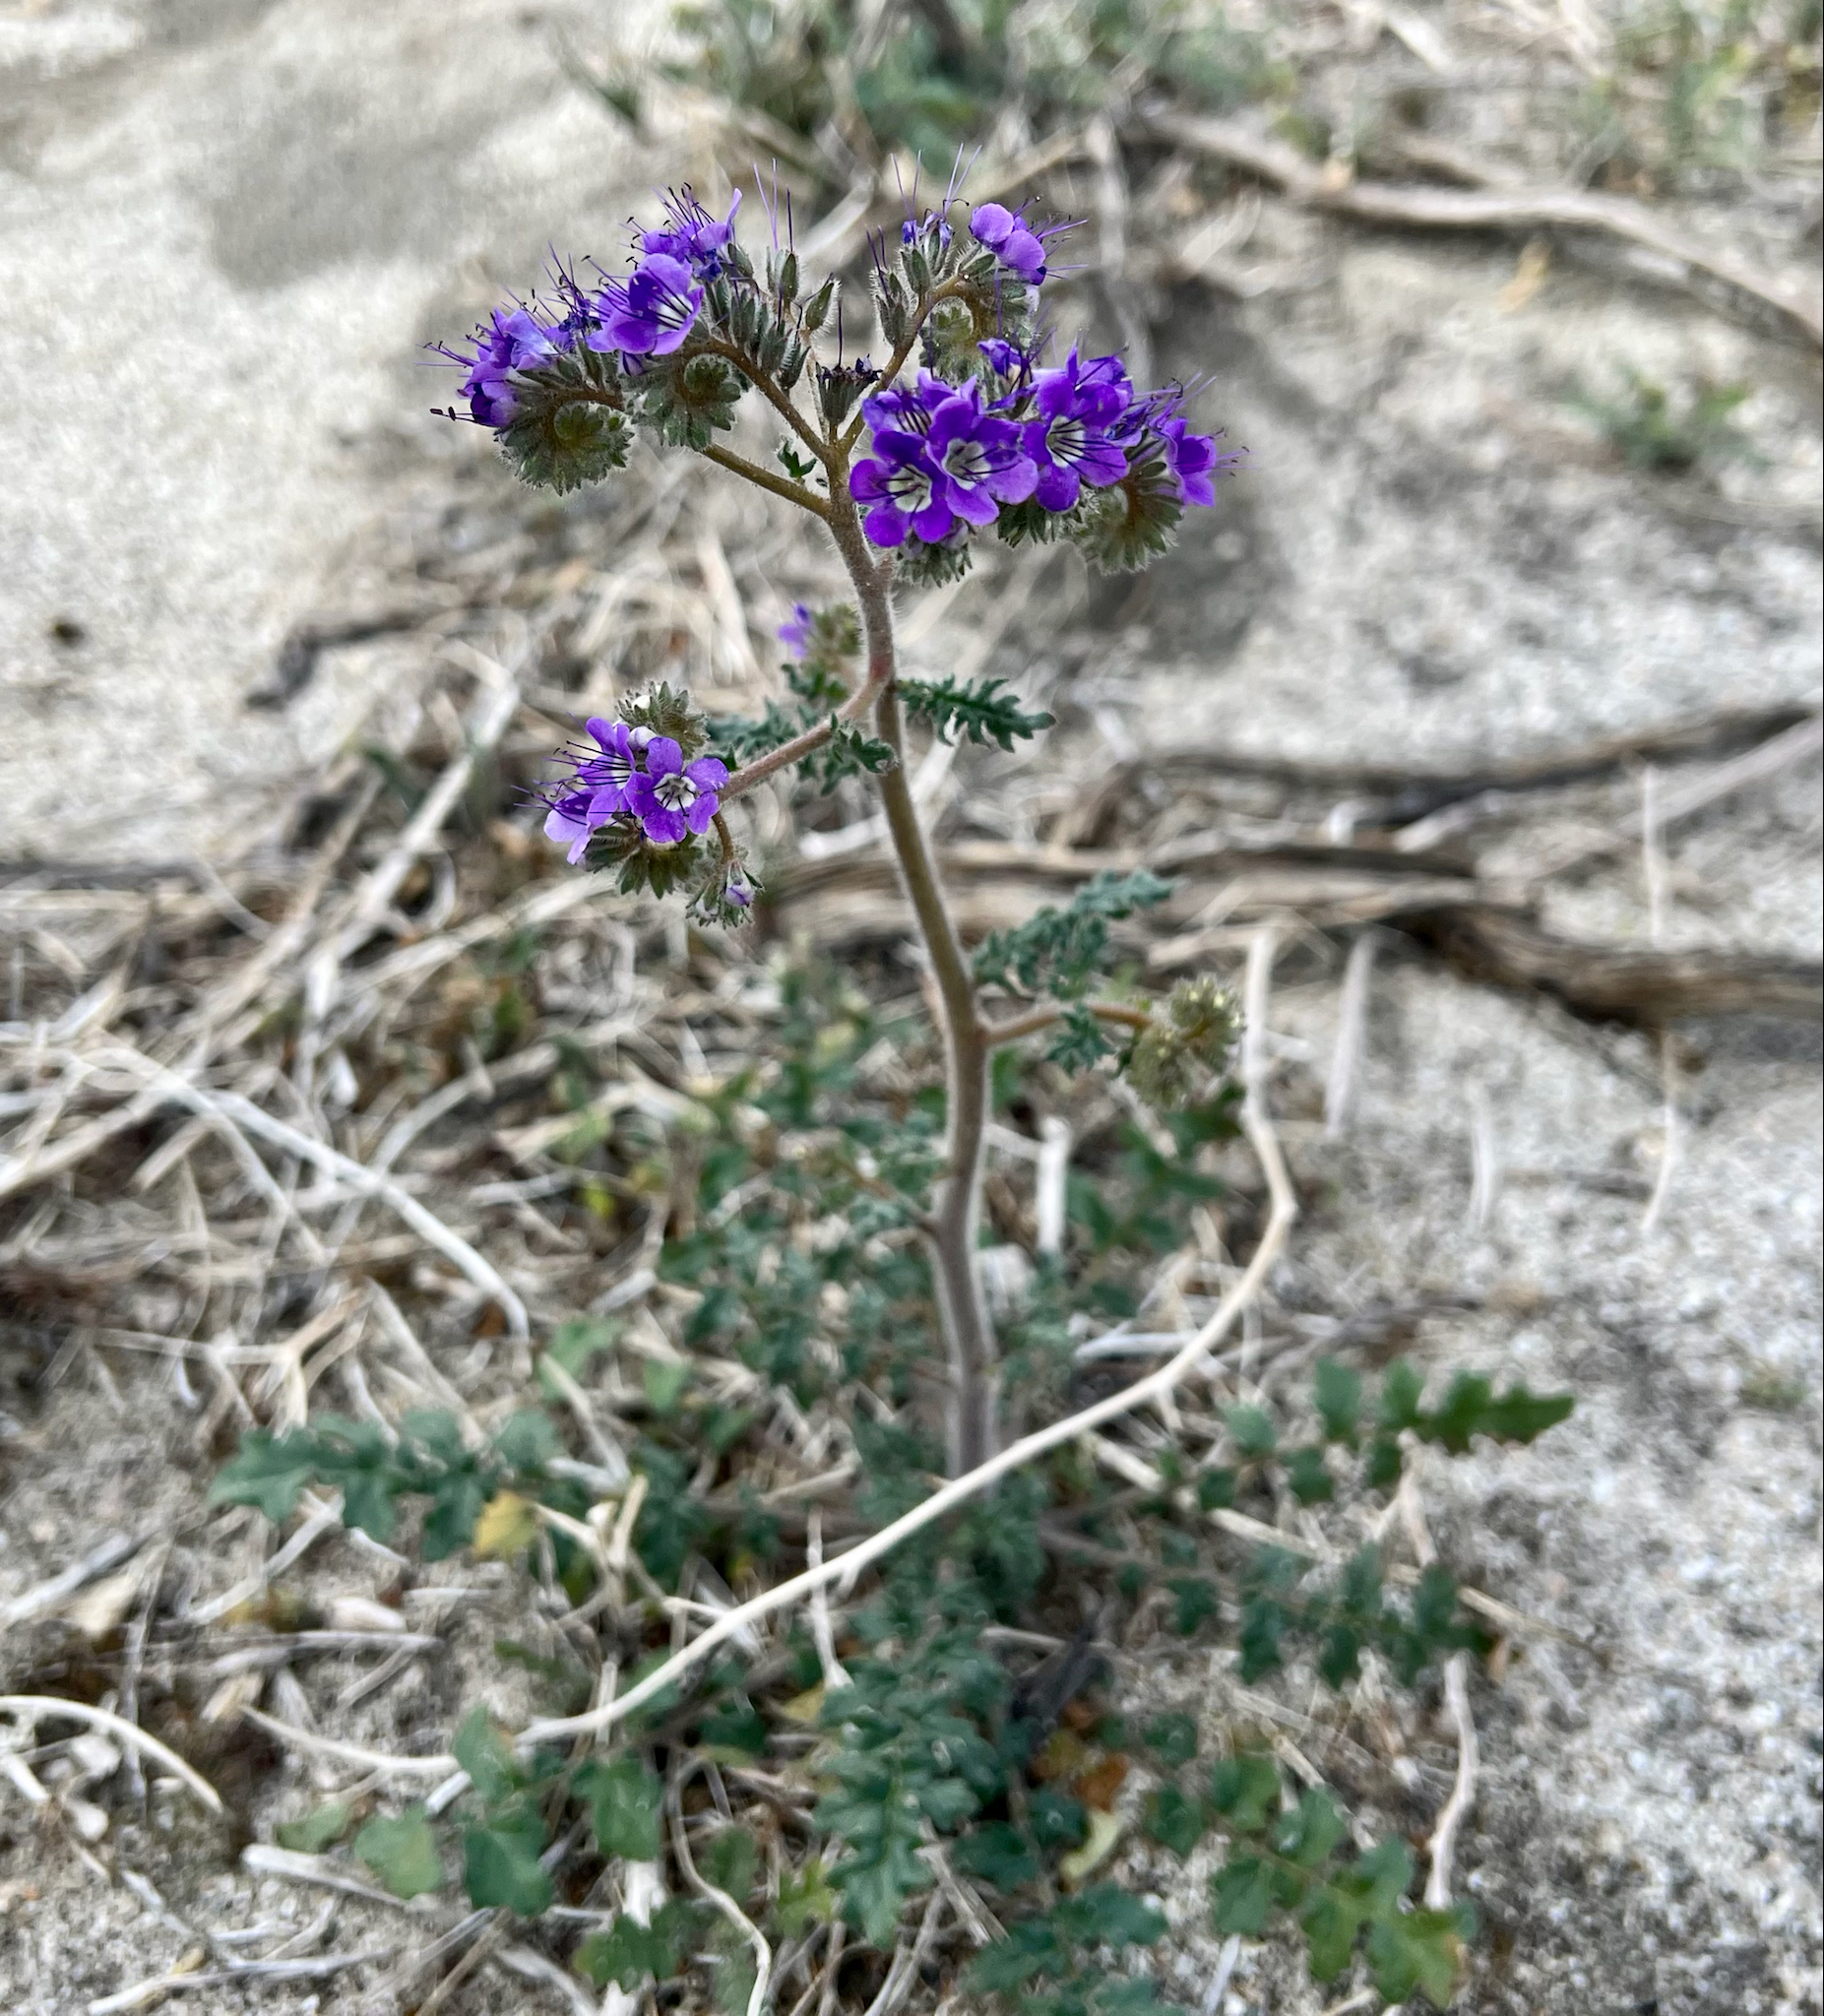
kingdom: Plantae
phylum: Tracheophyta
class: Magnoliopsida
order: Boraginales
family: Hydrophyllaceae
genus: Phacelia
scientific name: Phacelia crenulata
